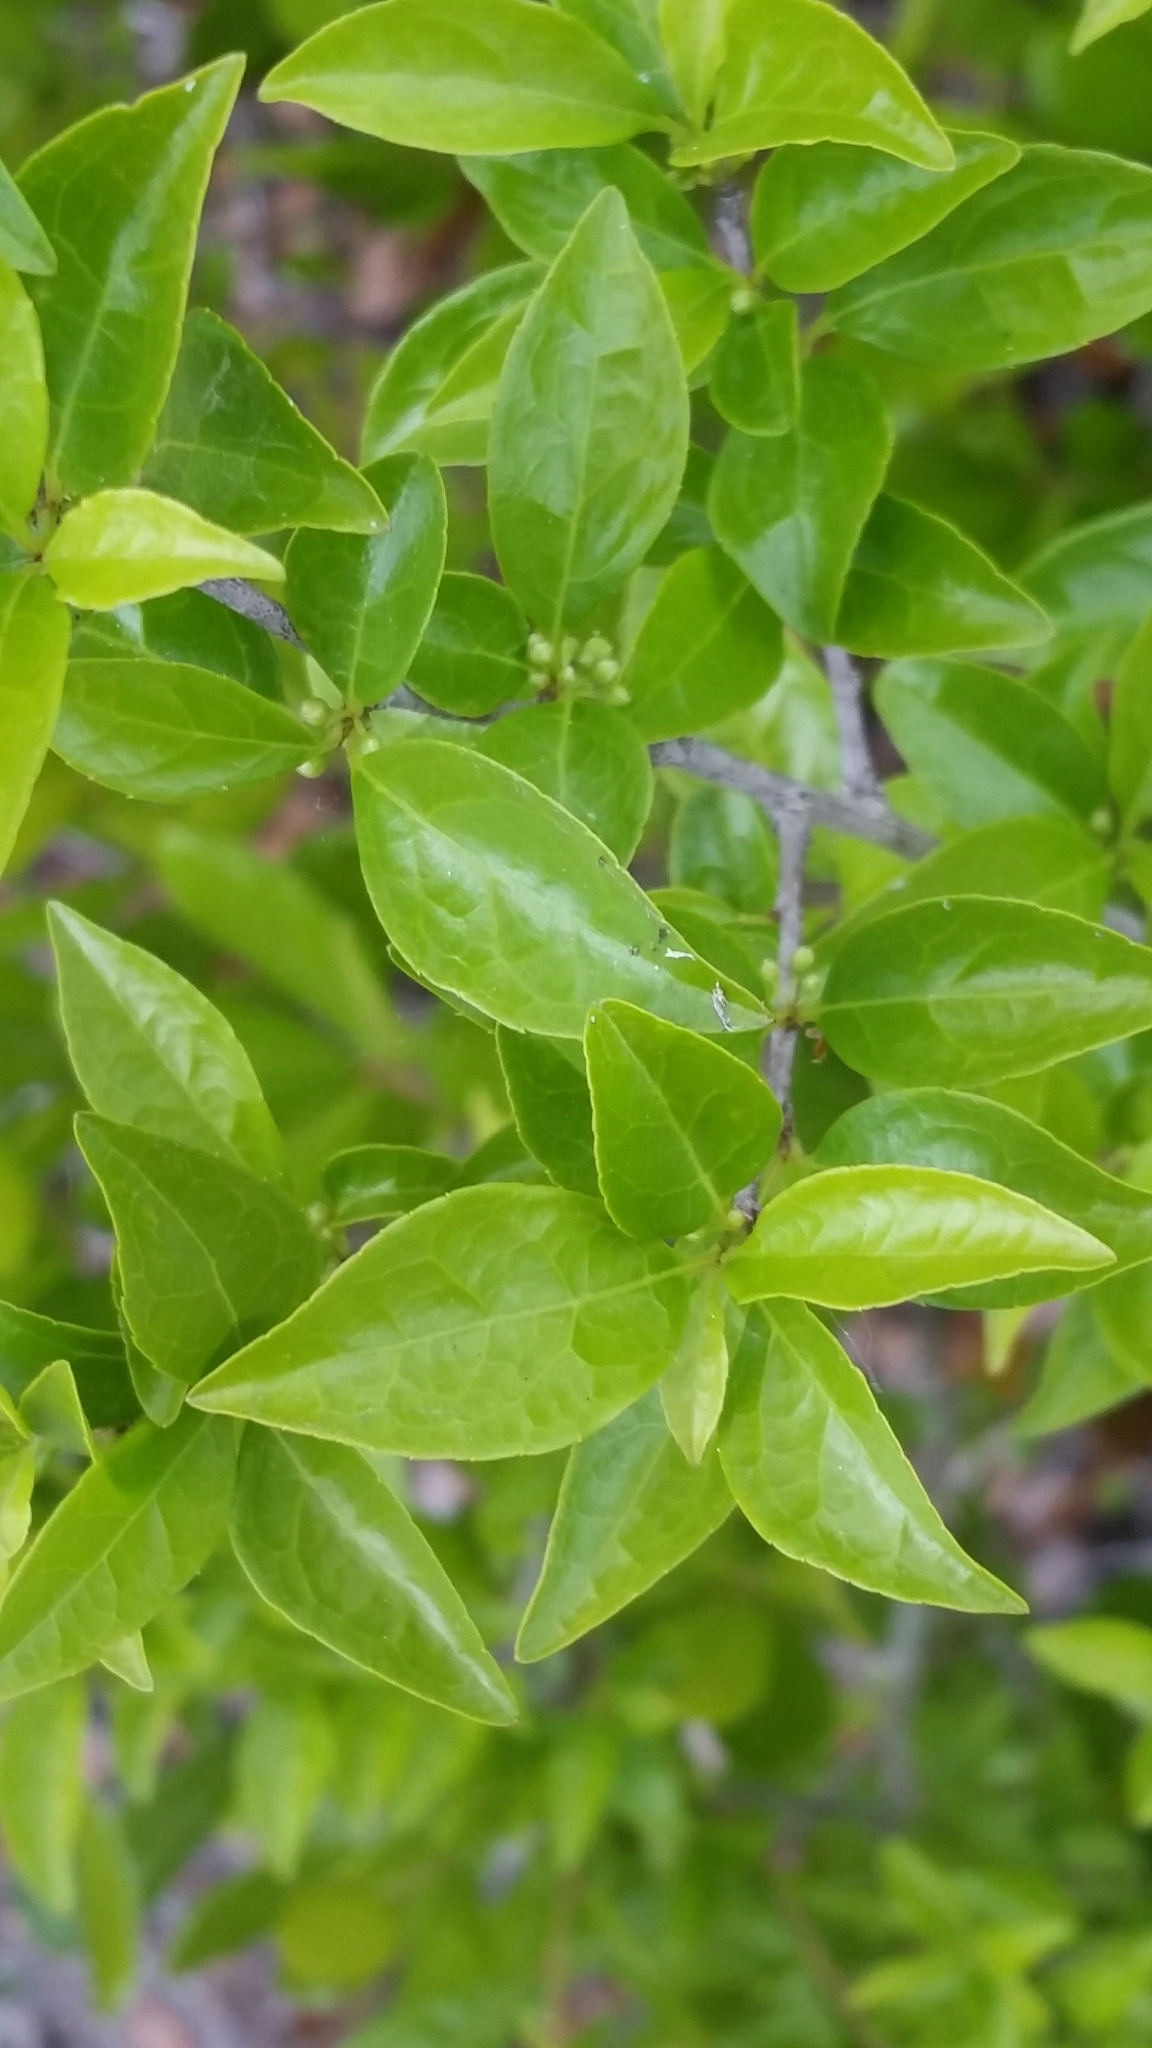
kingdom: Plantae
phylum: Tracheophyta
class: Magnoliopsida
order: Aquifoliales
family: Aquifoliaceae
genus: Ilex
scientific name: Ilex ambigua
